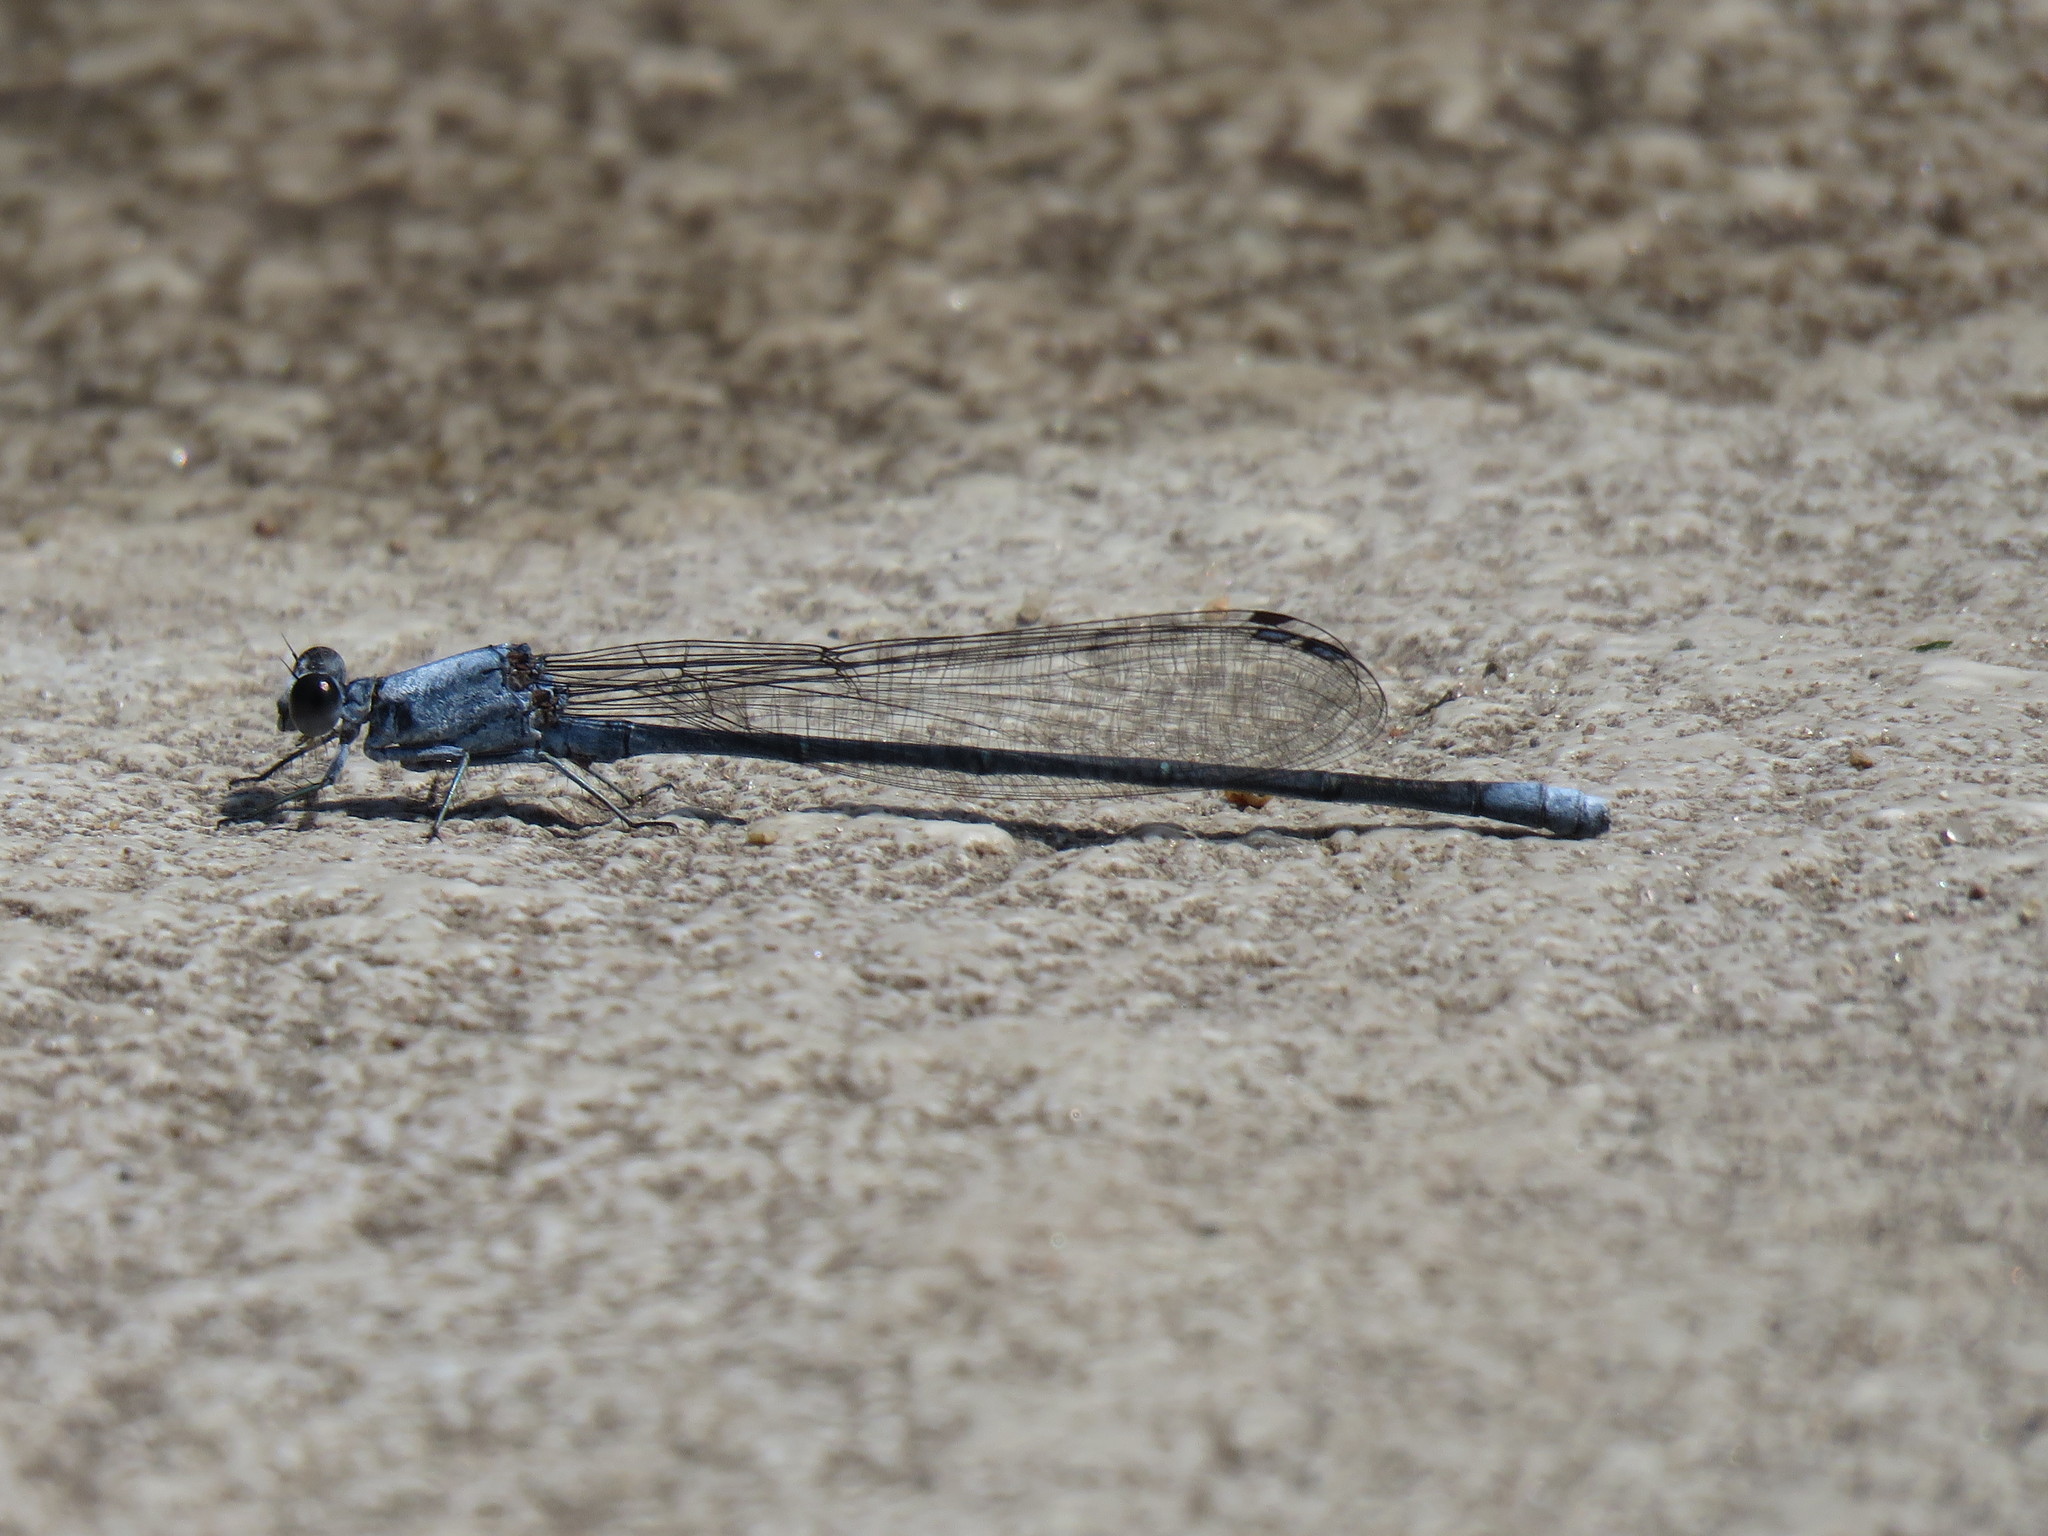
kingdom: Animalia
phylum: Arthropoda
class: Insecta
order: Odonata
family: Coenagrionidae
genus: Argia
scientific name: Argia moesta
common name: Powdered dancer
